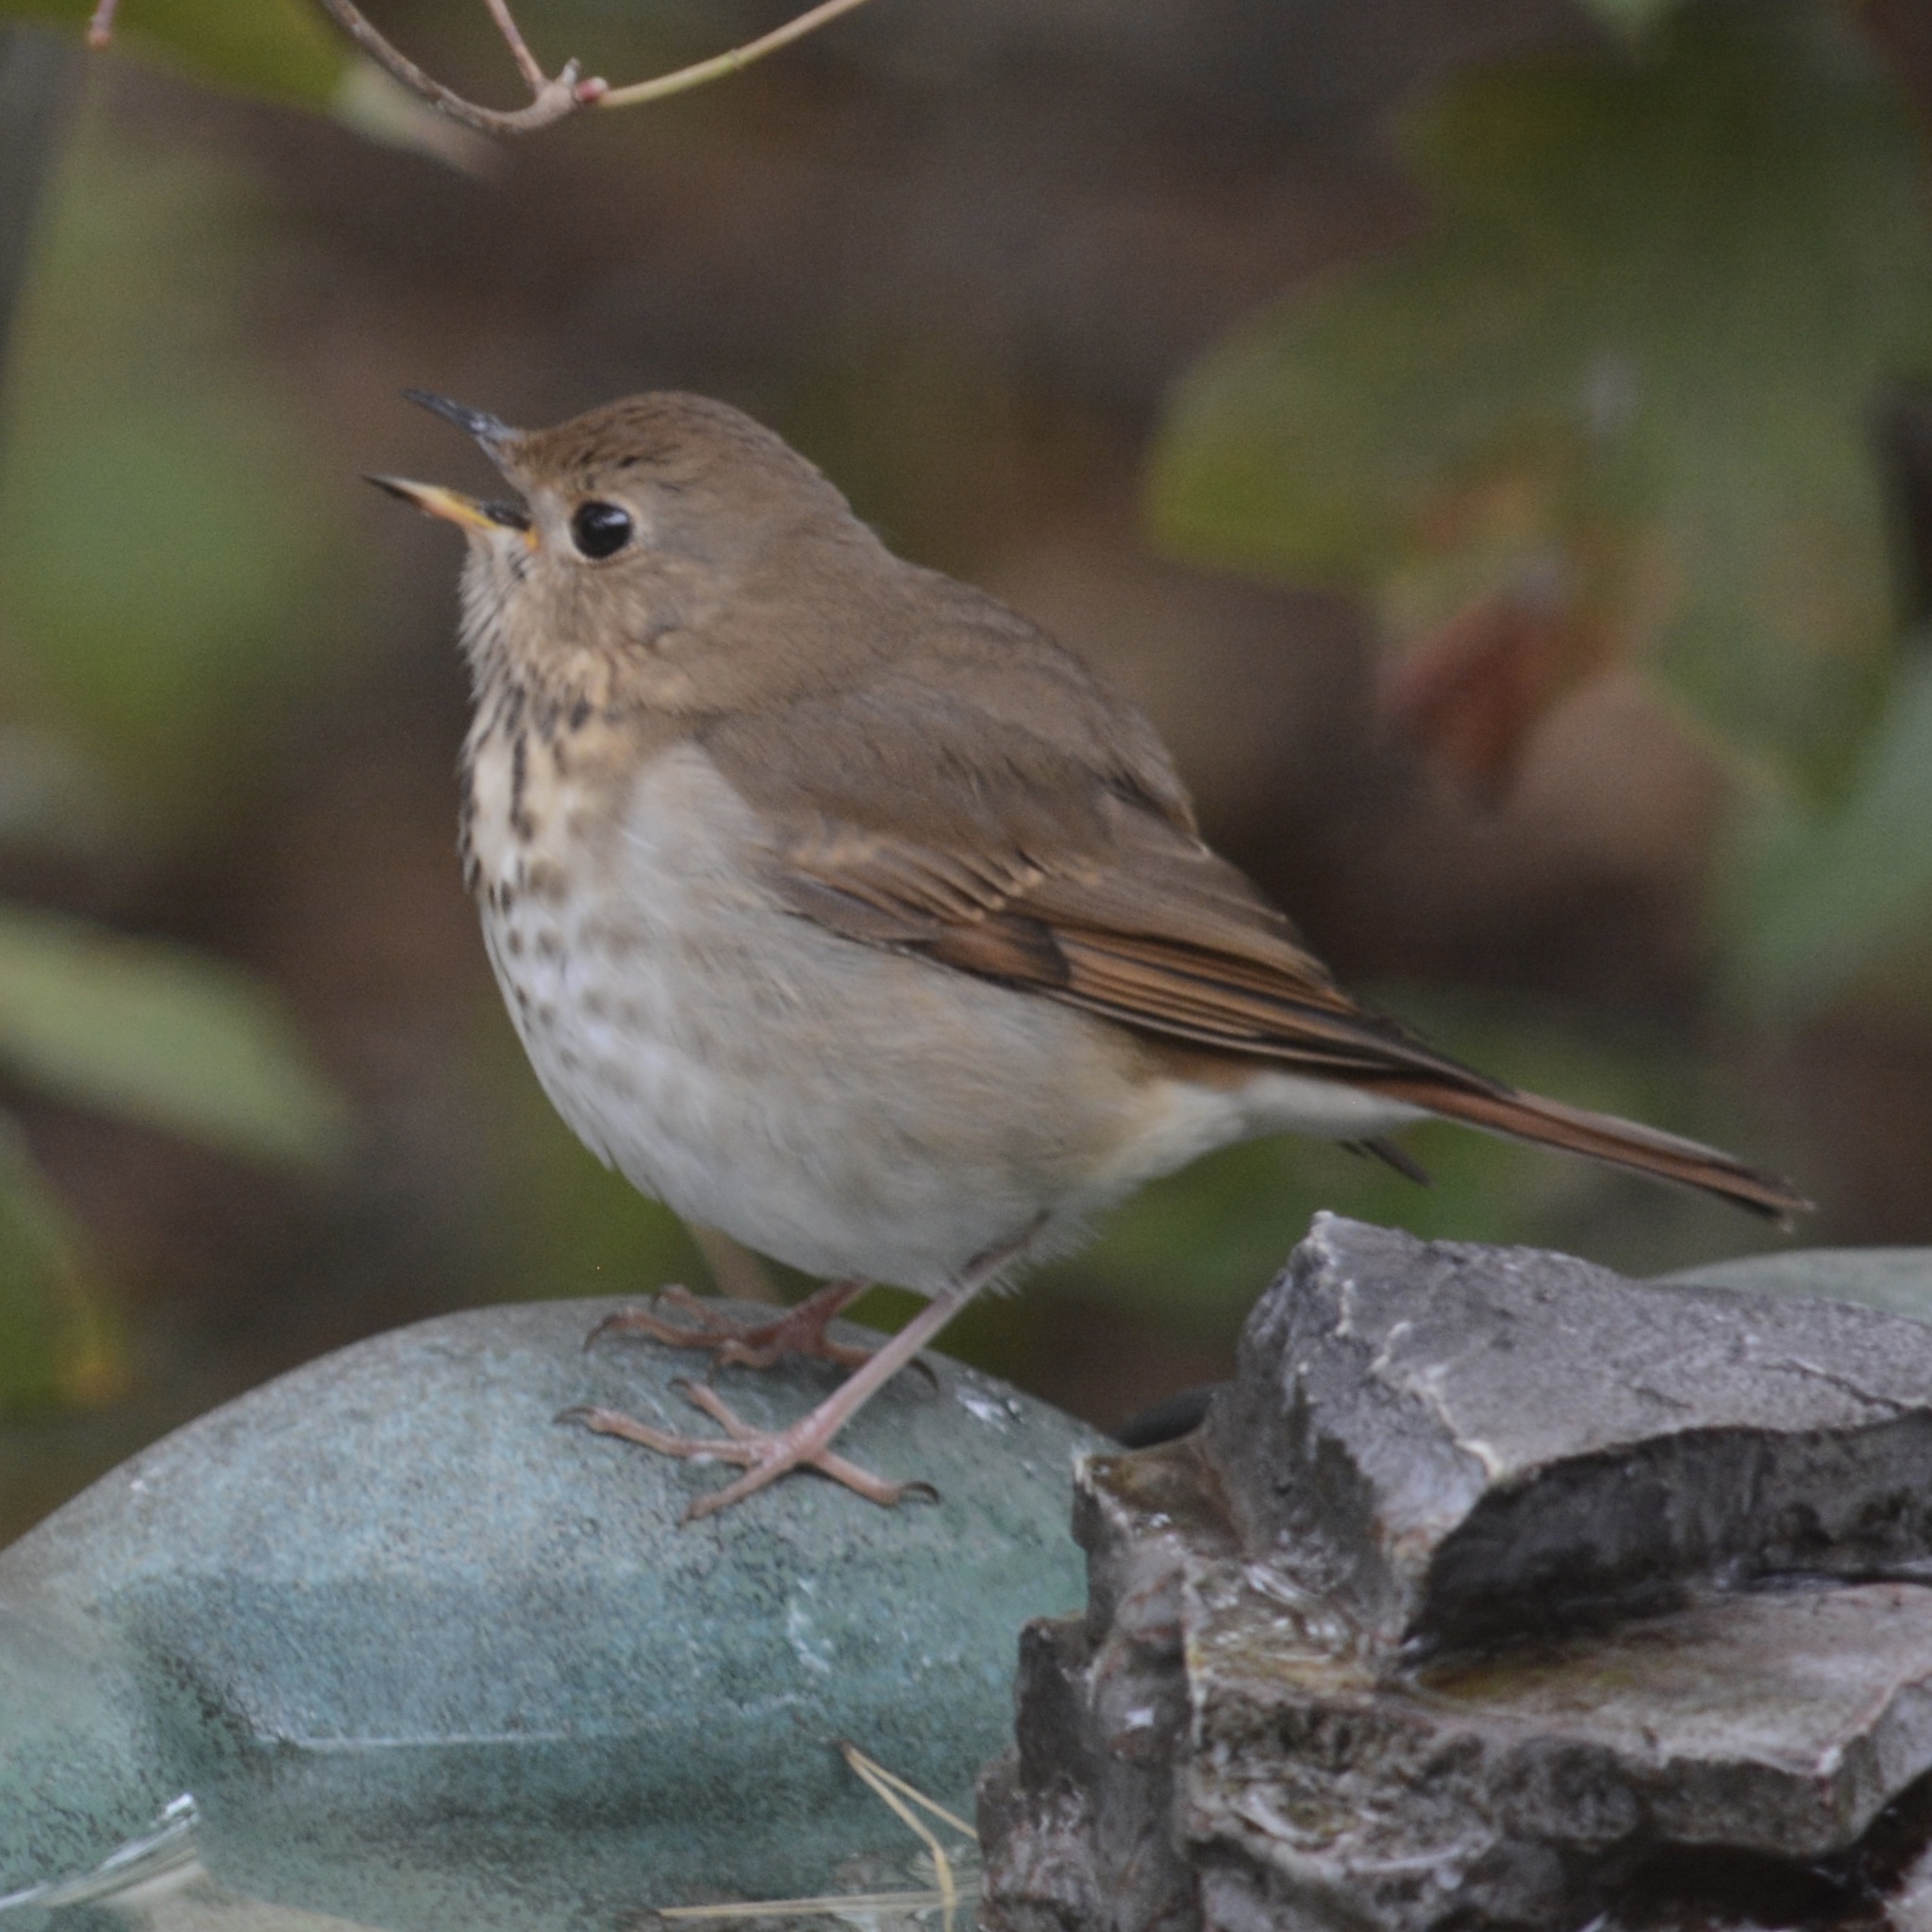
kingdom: Animalia
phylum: Chordata
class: Aves
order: Passeriformes
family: Turdidae
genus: Catharus
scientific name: Catharus guttatus
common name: Hermit thrush
